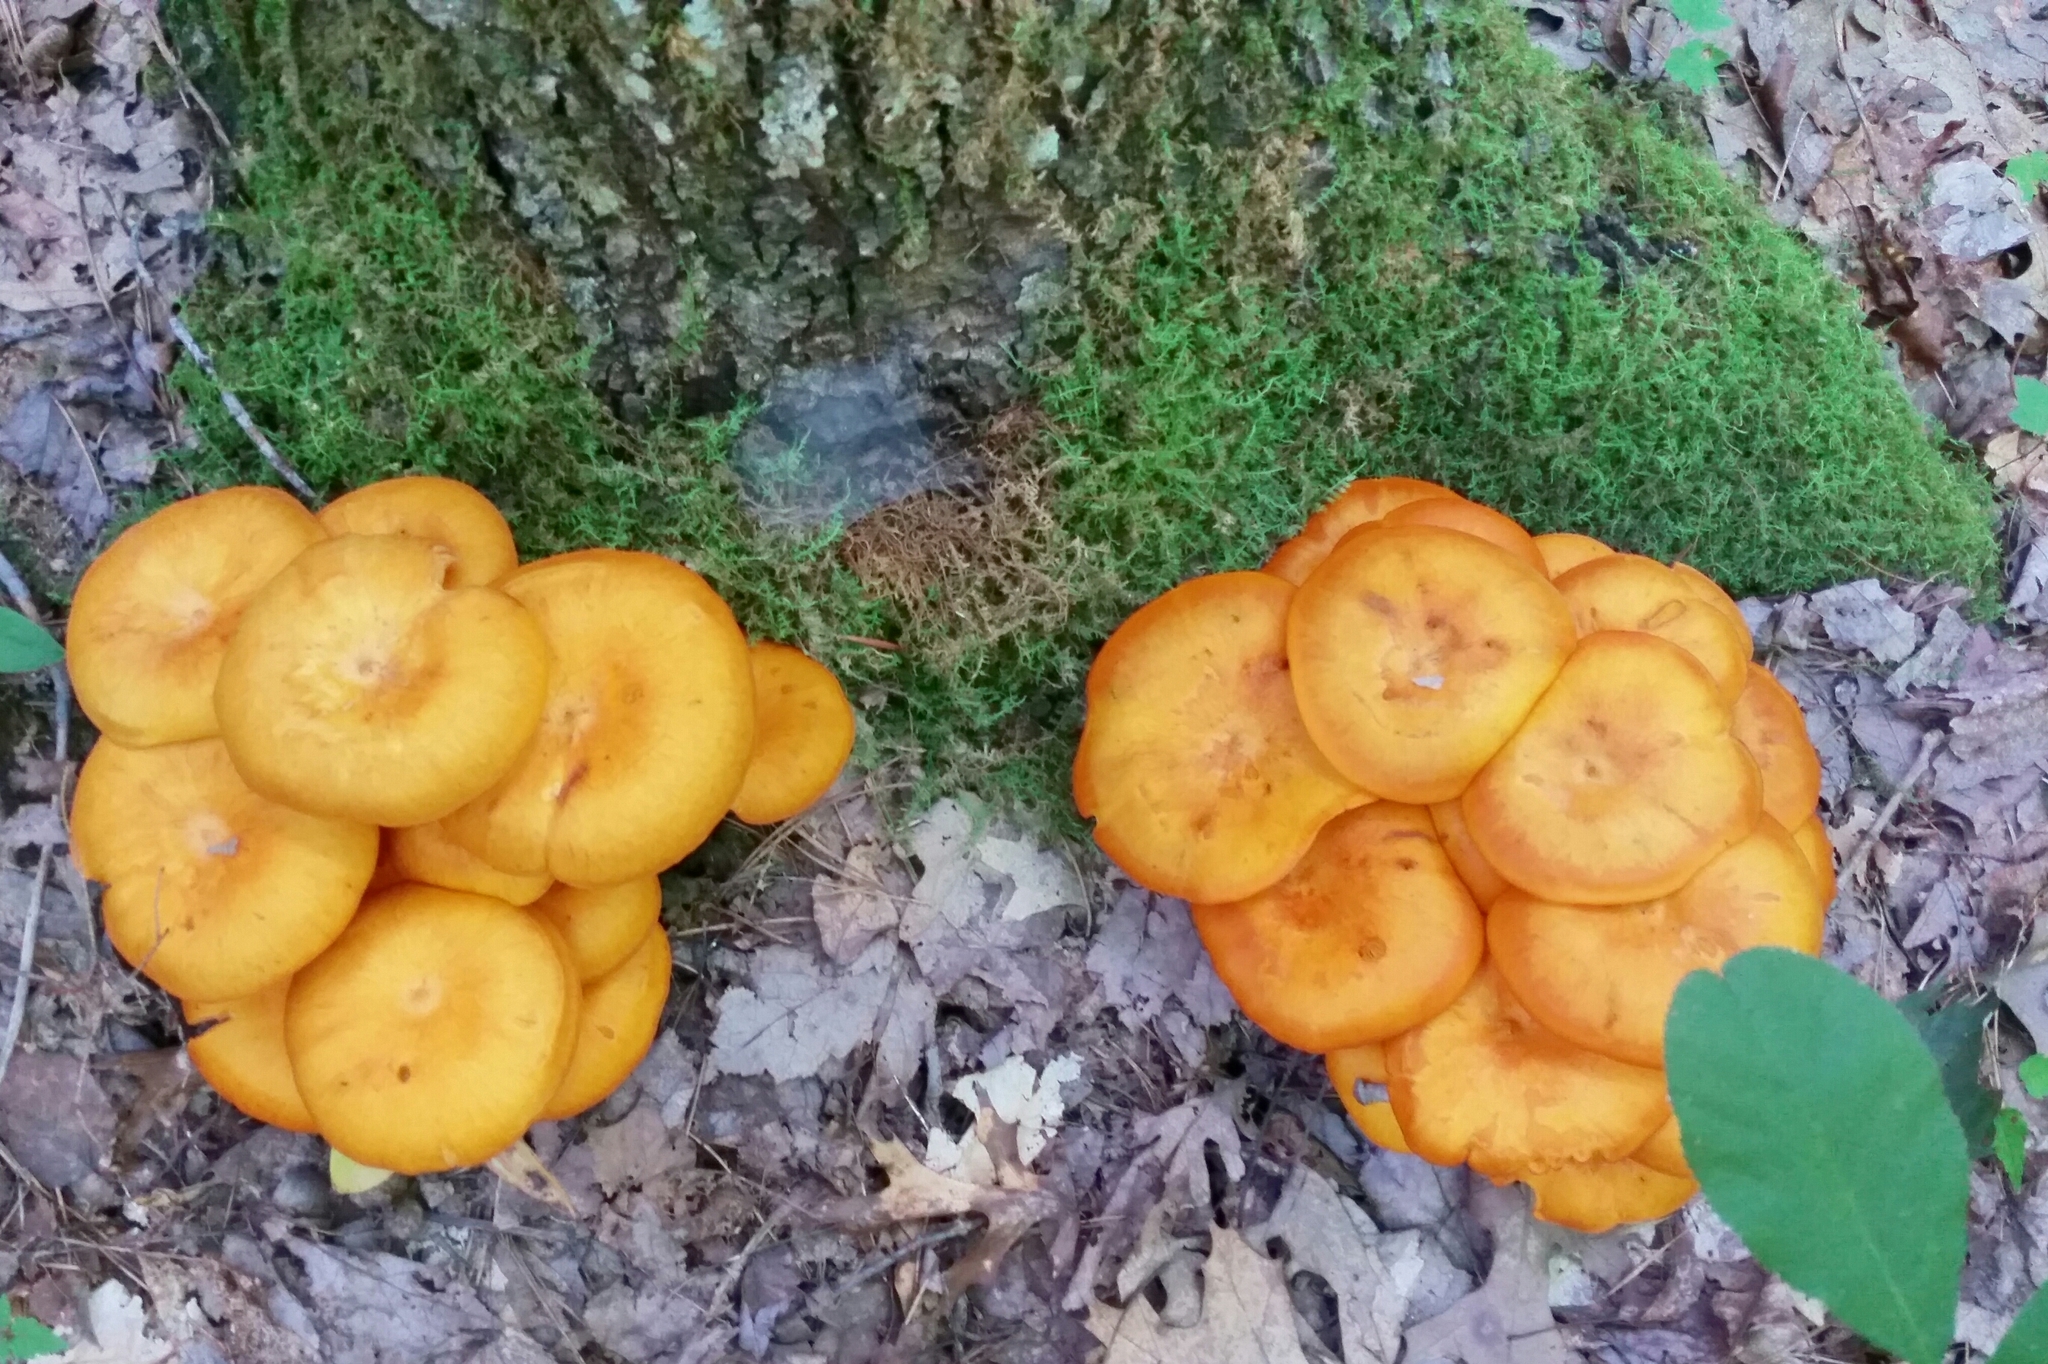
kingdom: Fungi
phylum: Basidiomycota
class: Agaricomycetes
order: Agaricales
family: Omphalotaceae
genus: Omphalotus
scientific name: Omphalotus illudens
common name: Jack o lantern
